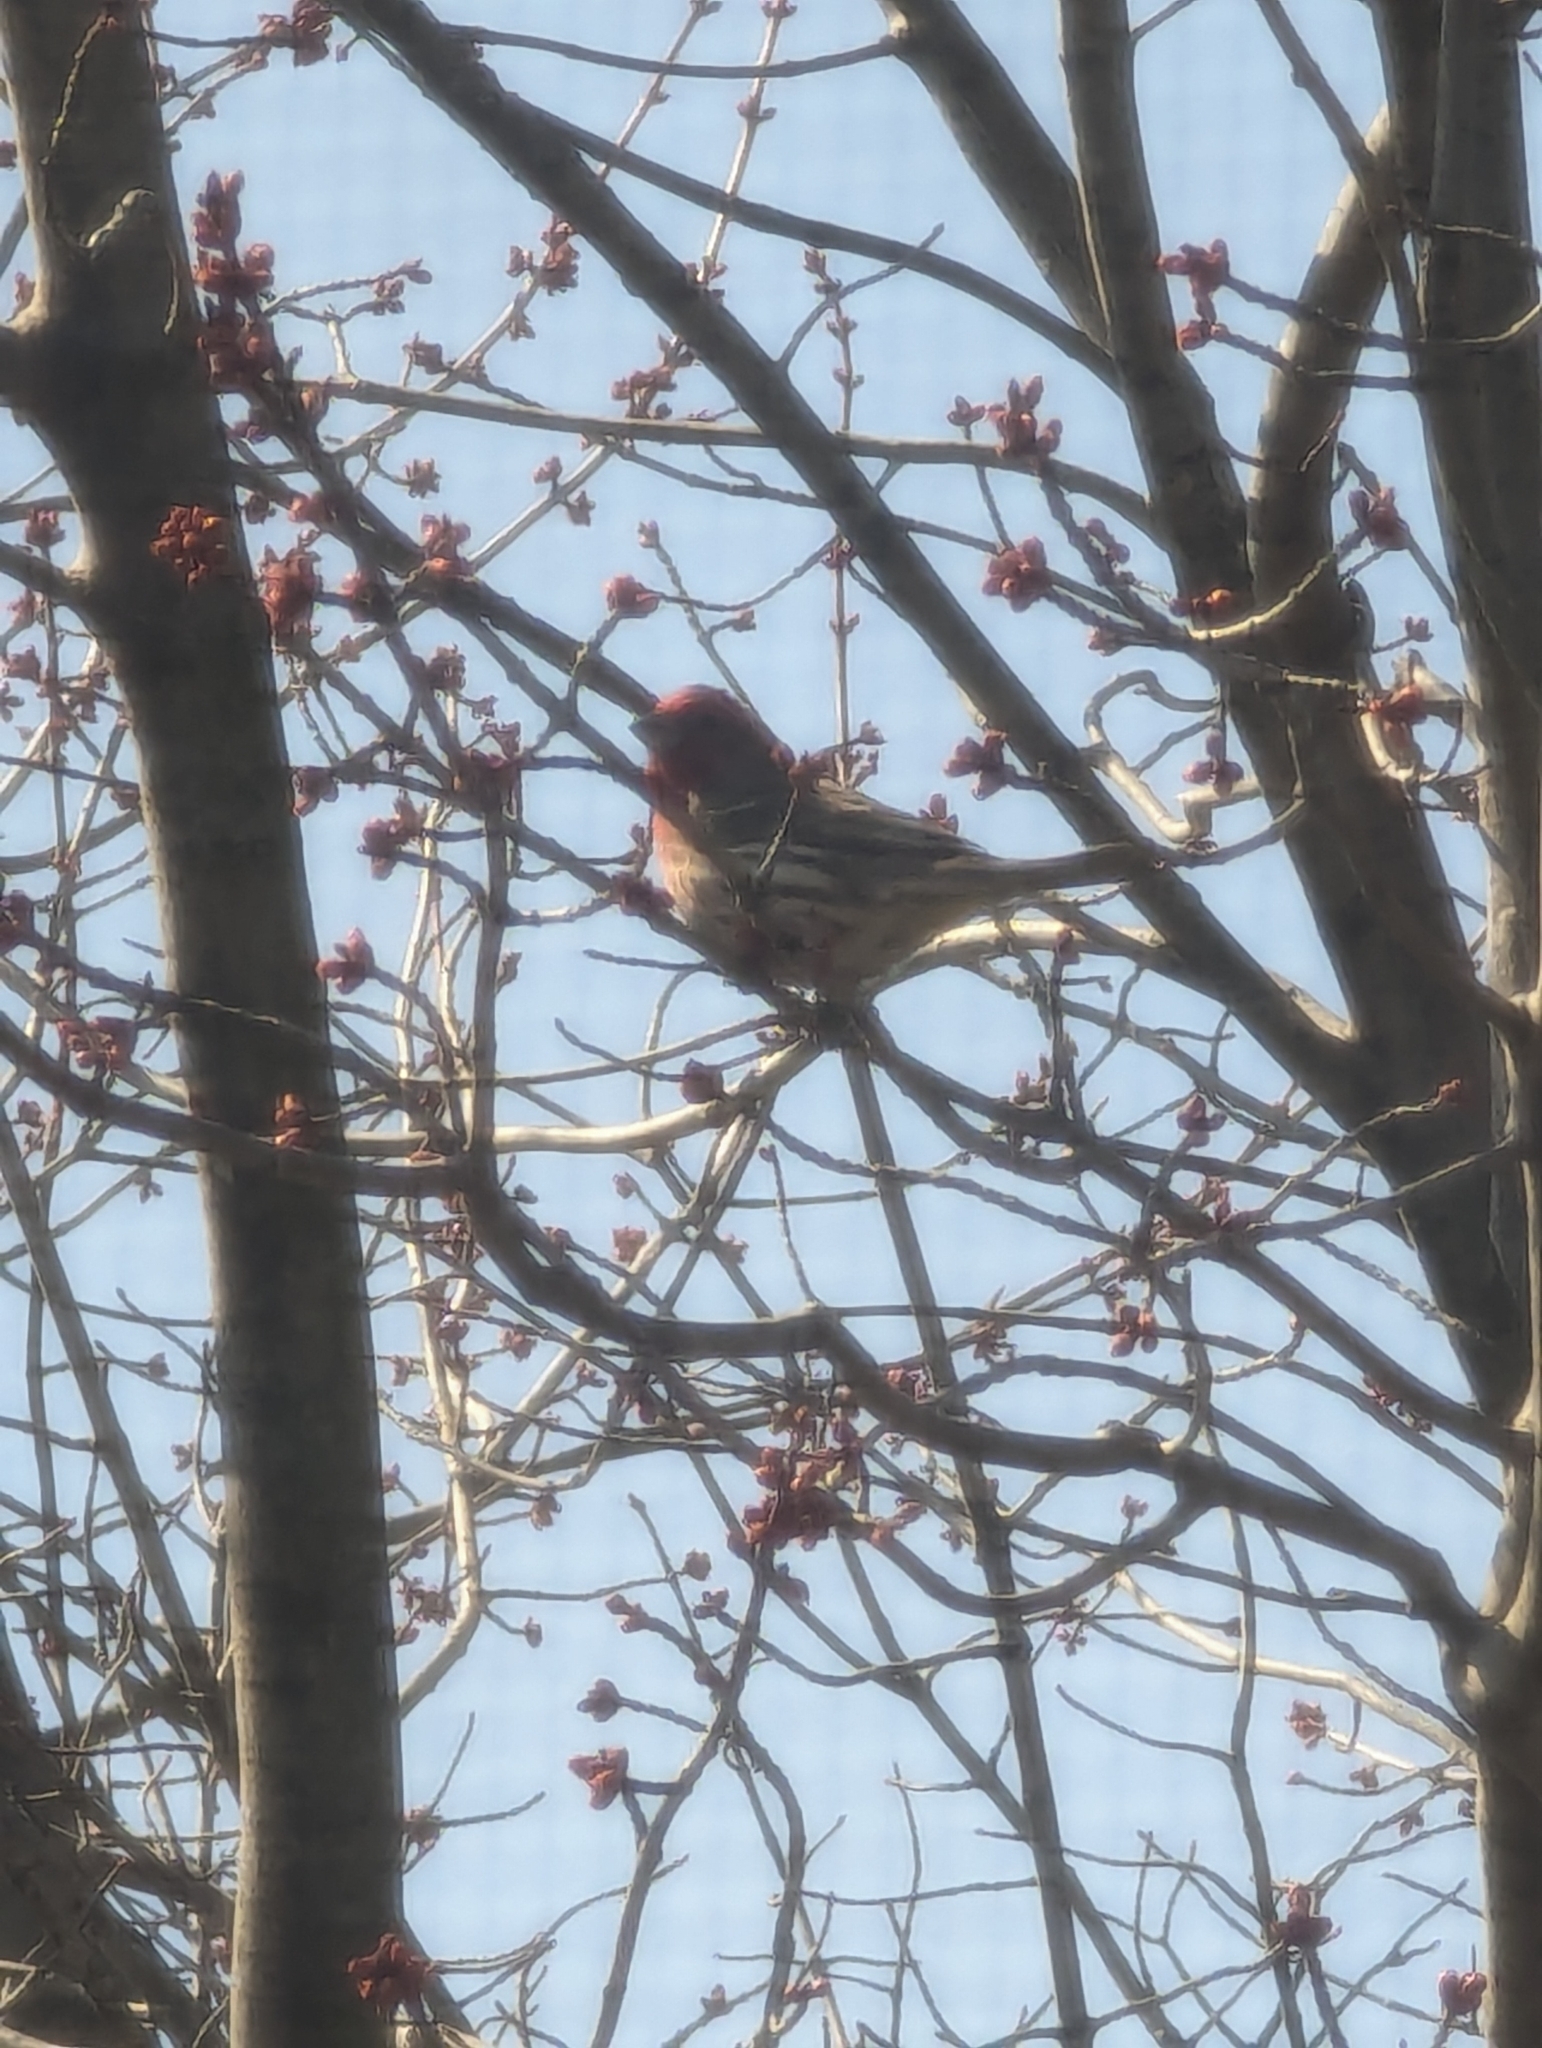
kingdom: Animalia
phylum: Chordata
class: Aves
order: Passeriformes
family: Fringillidae
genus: Haemorhous
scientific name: Haemorhous mexicanus
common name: House finch
